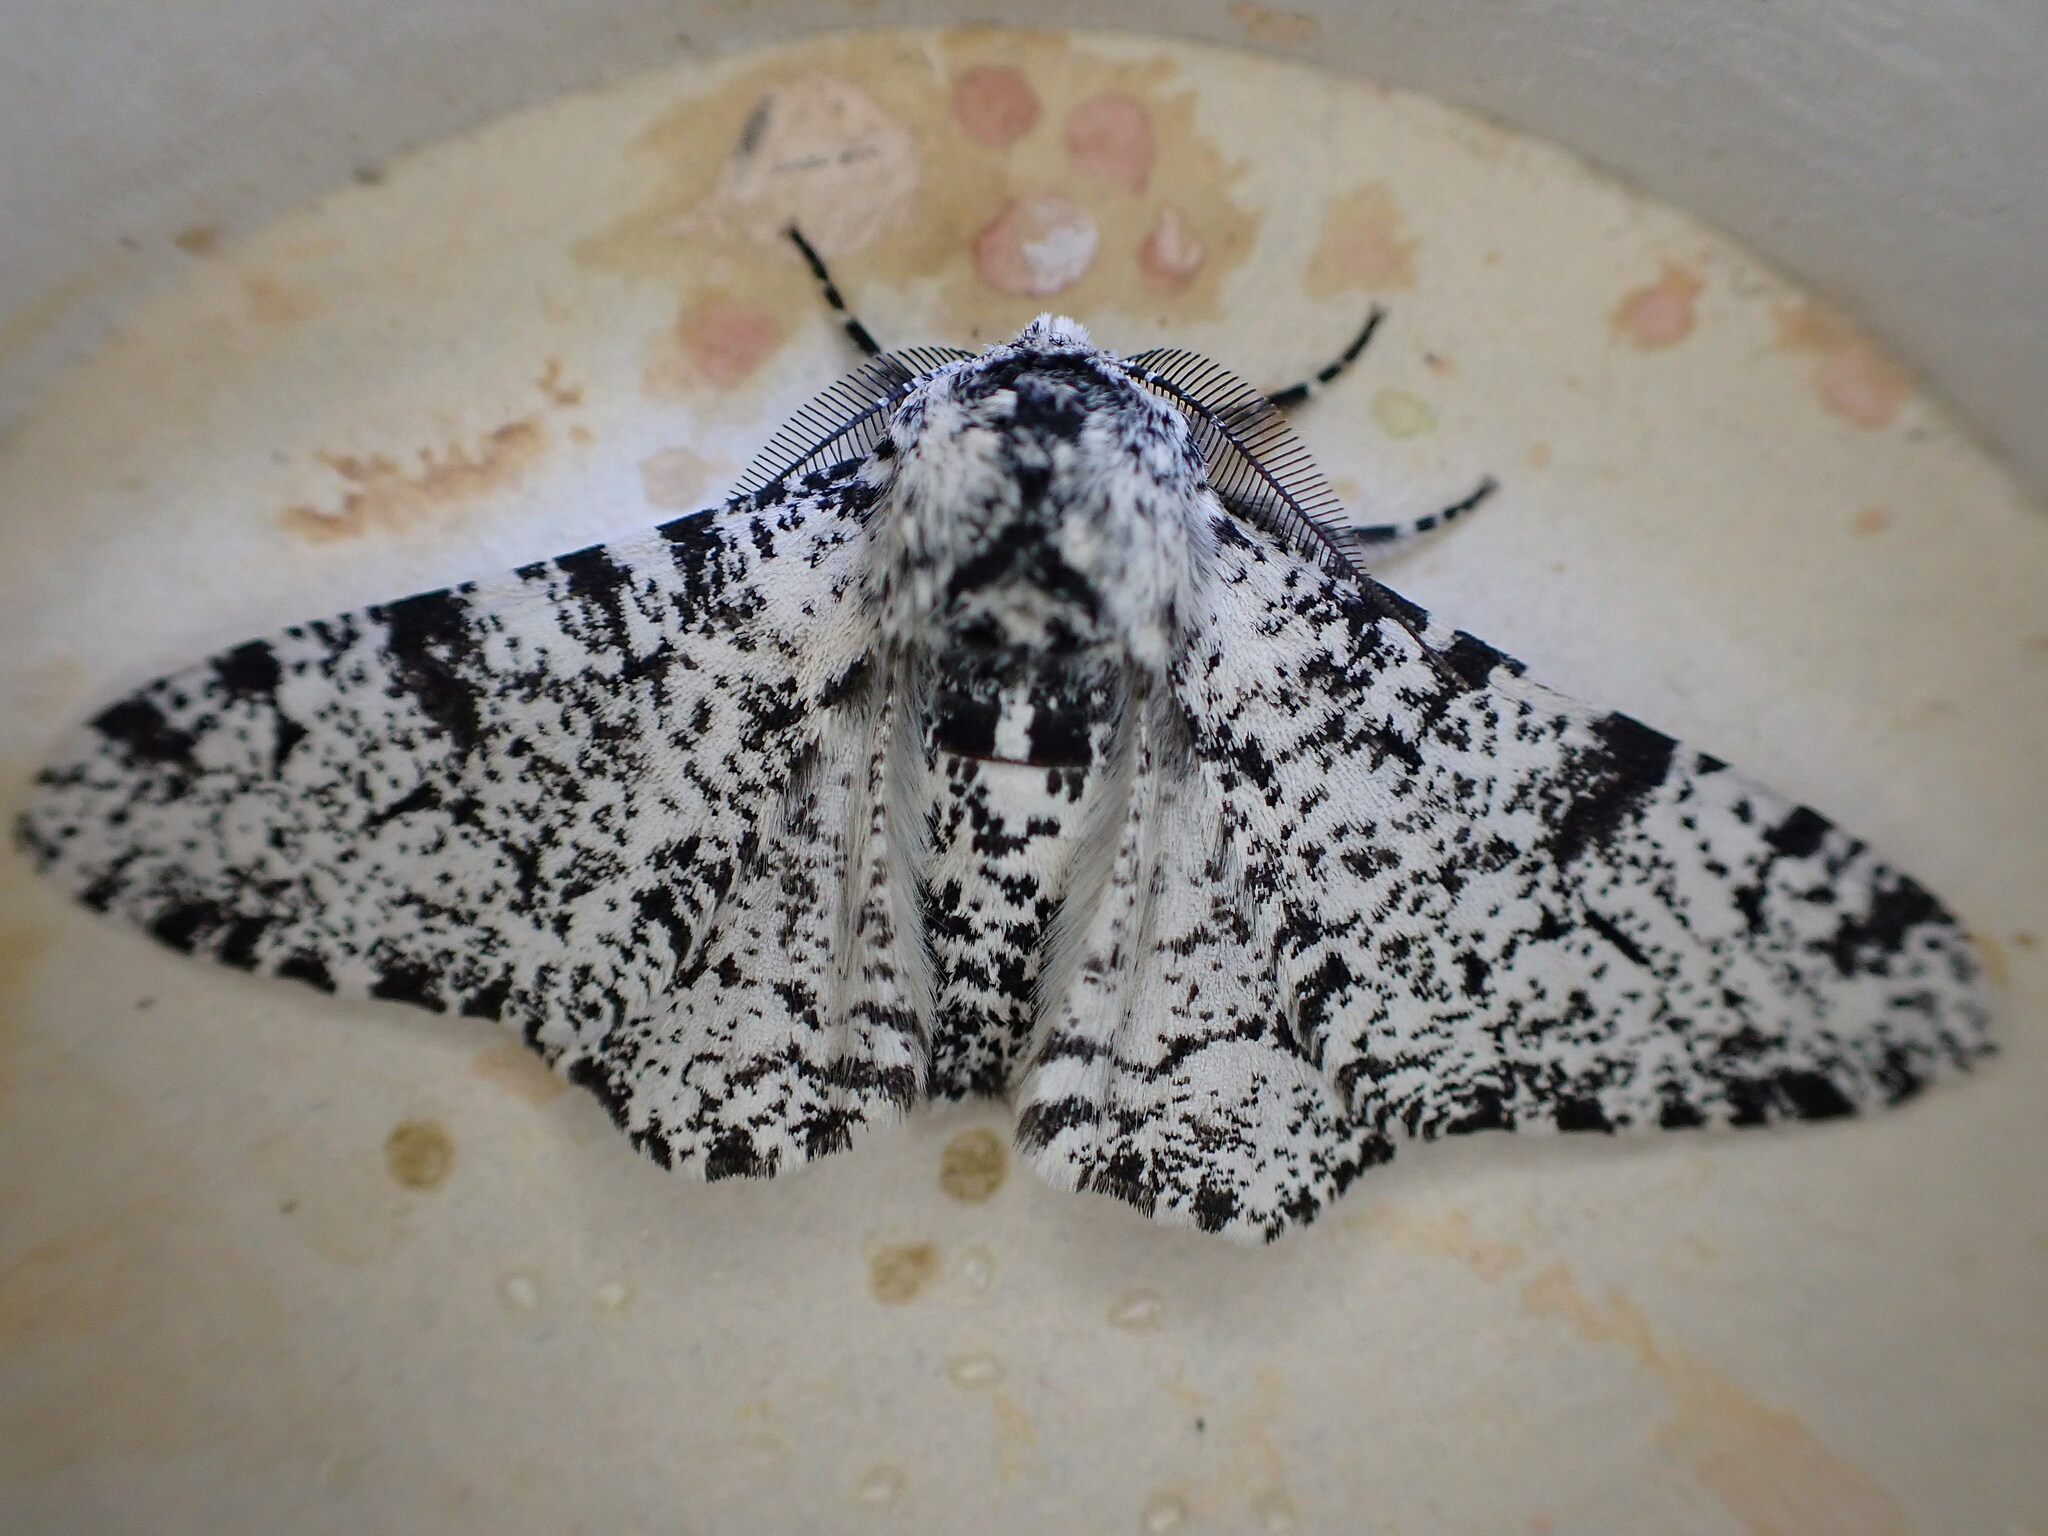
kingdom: Animalia
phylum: Arthropoda
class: Insecta
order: Lepidoptera
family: Geometridae
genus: Biston
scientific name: Biston betularia
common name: Peppered moth
